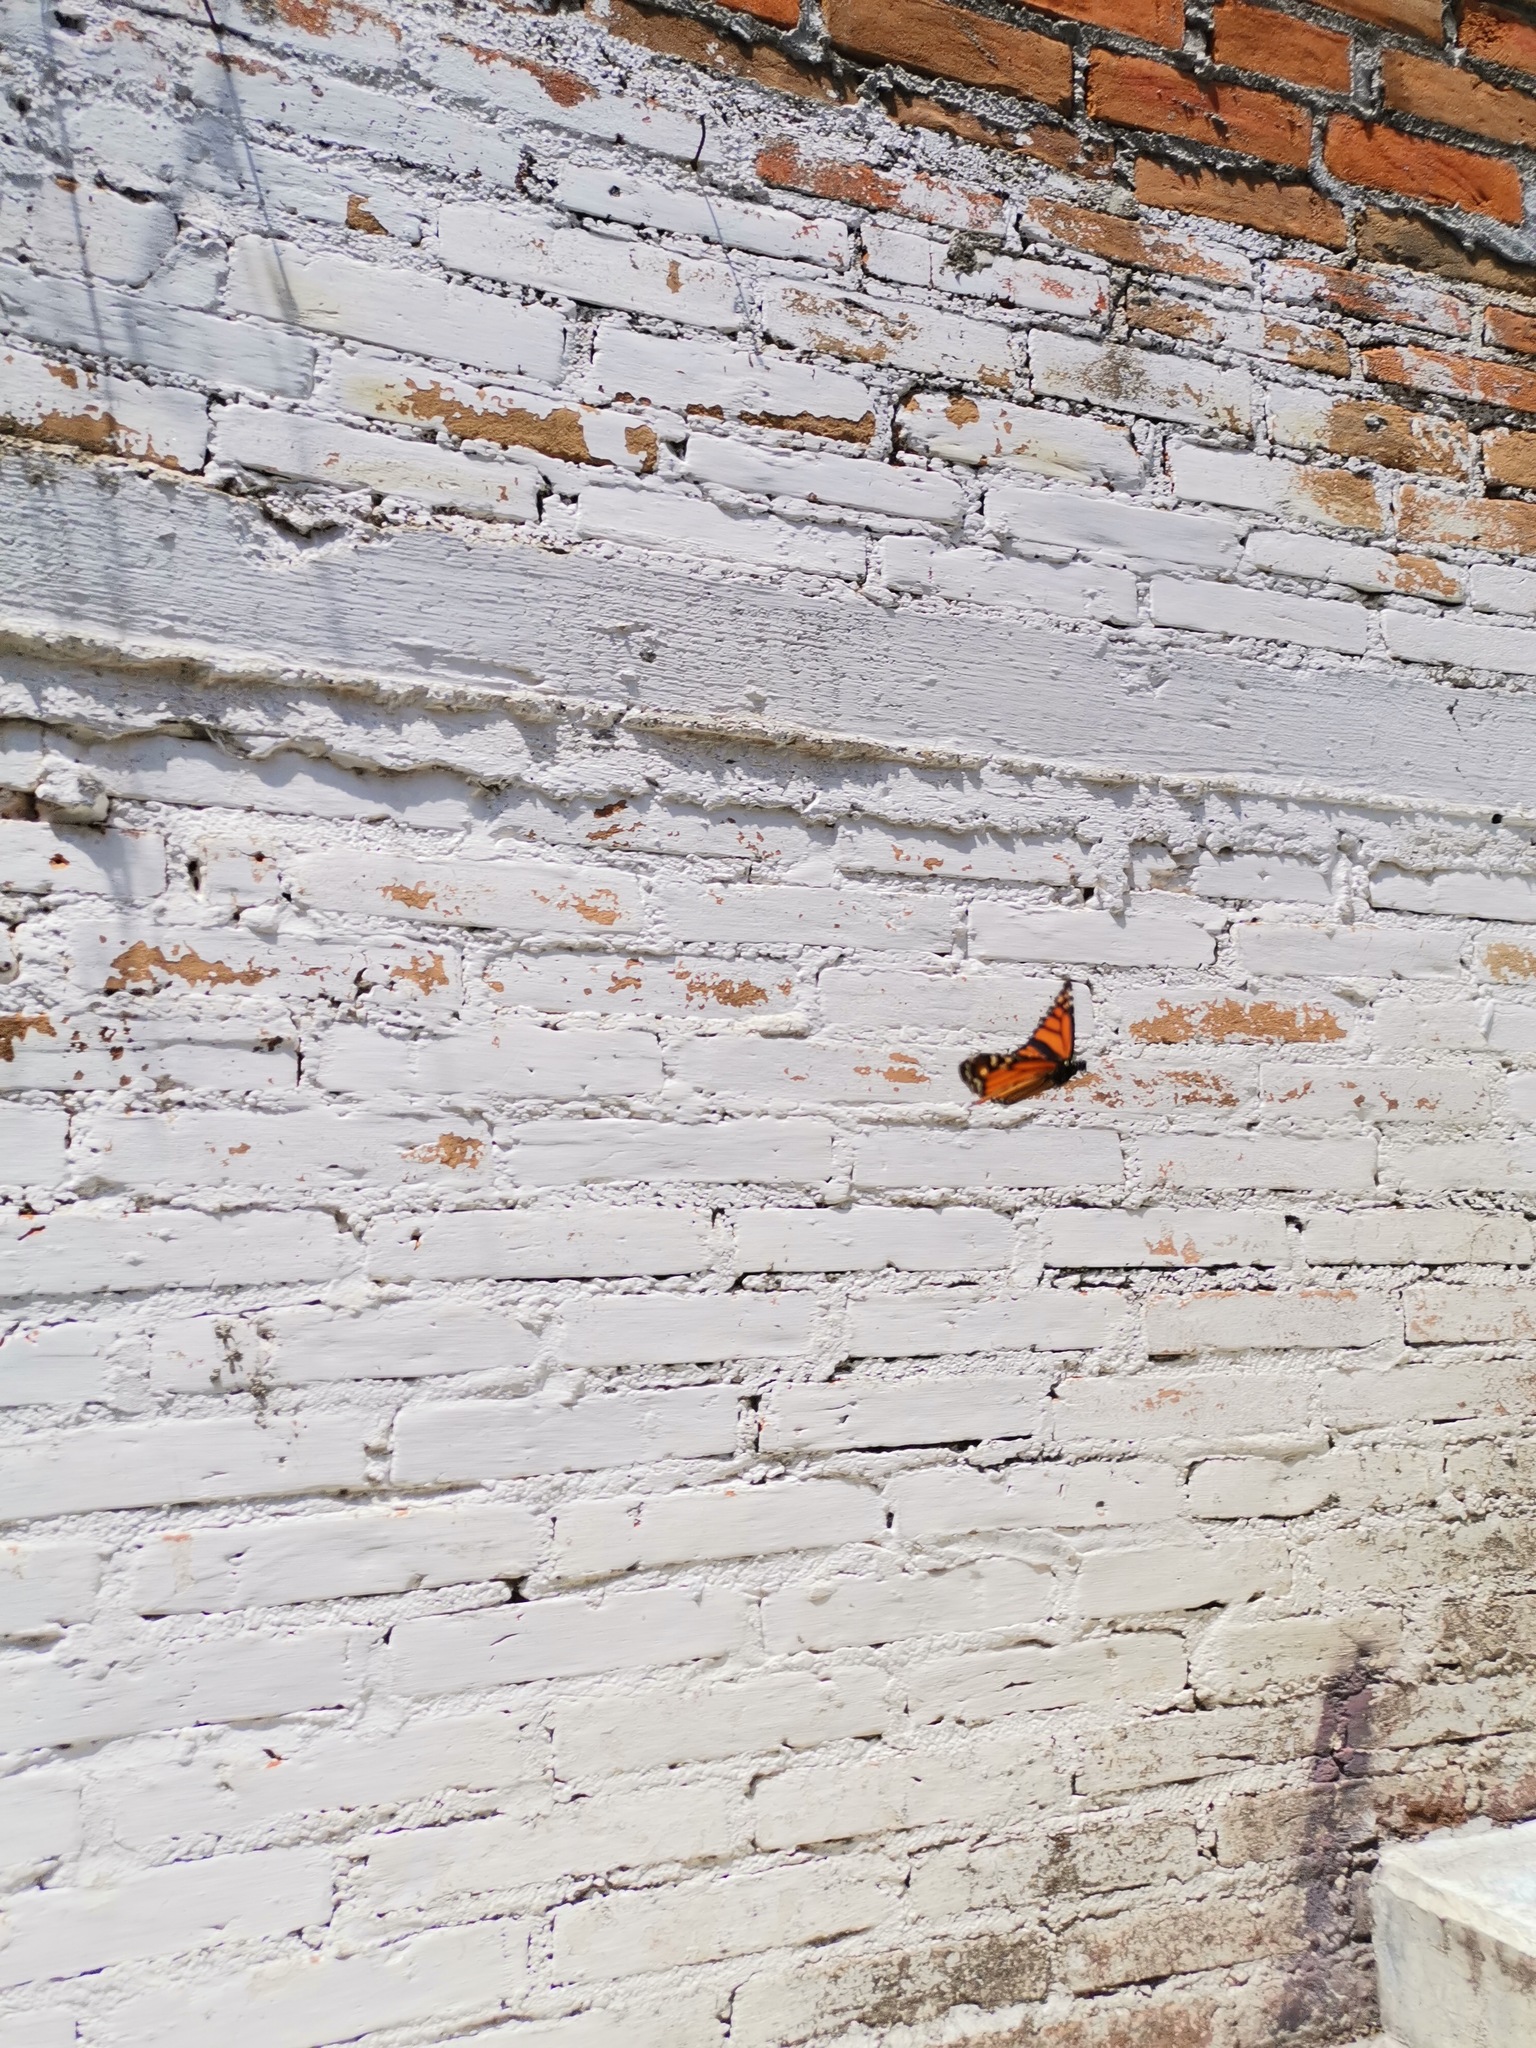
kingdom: Animalia
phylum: Arthropoda
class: Insecta
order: Lepidoptera
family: Nymphalidae
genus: Danaus
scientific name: Danaus plexippus
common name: Monarch
